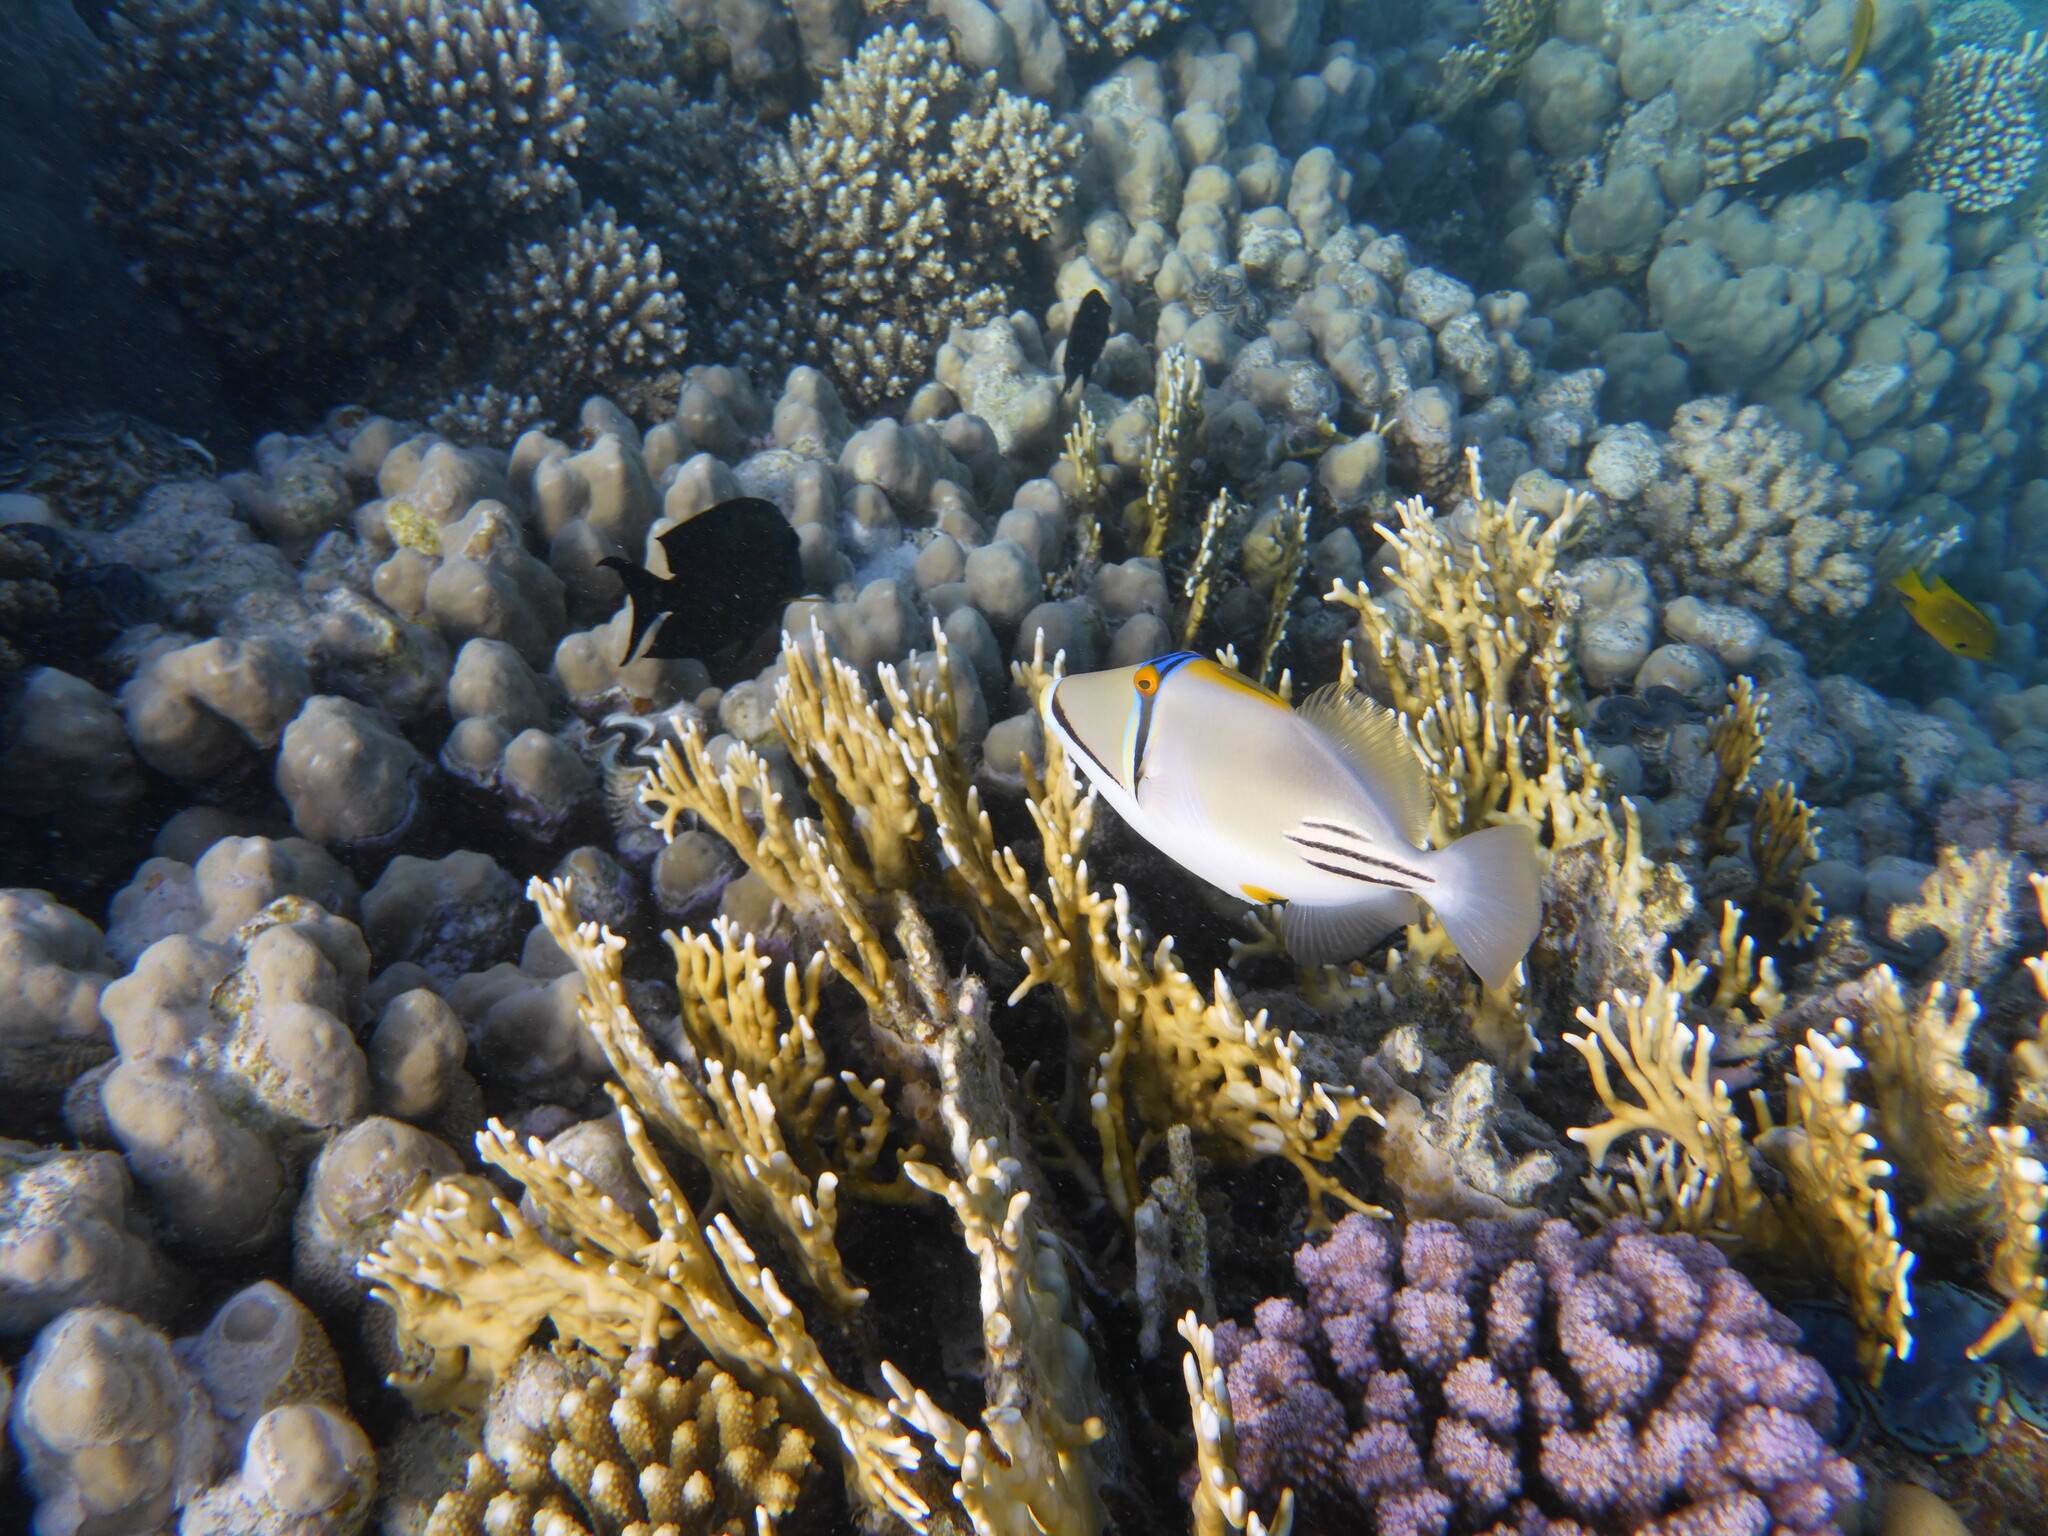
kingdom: Animalia
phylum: Chordata
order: Tetraodontiformes
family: Balistidae
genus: Rhinecanthus
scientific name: Rhinecanthus assasi
